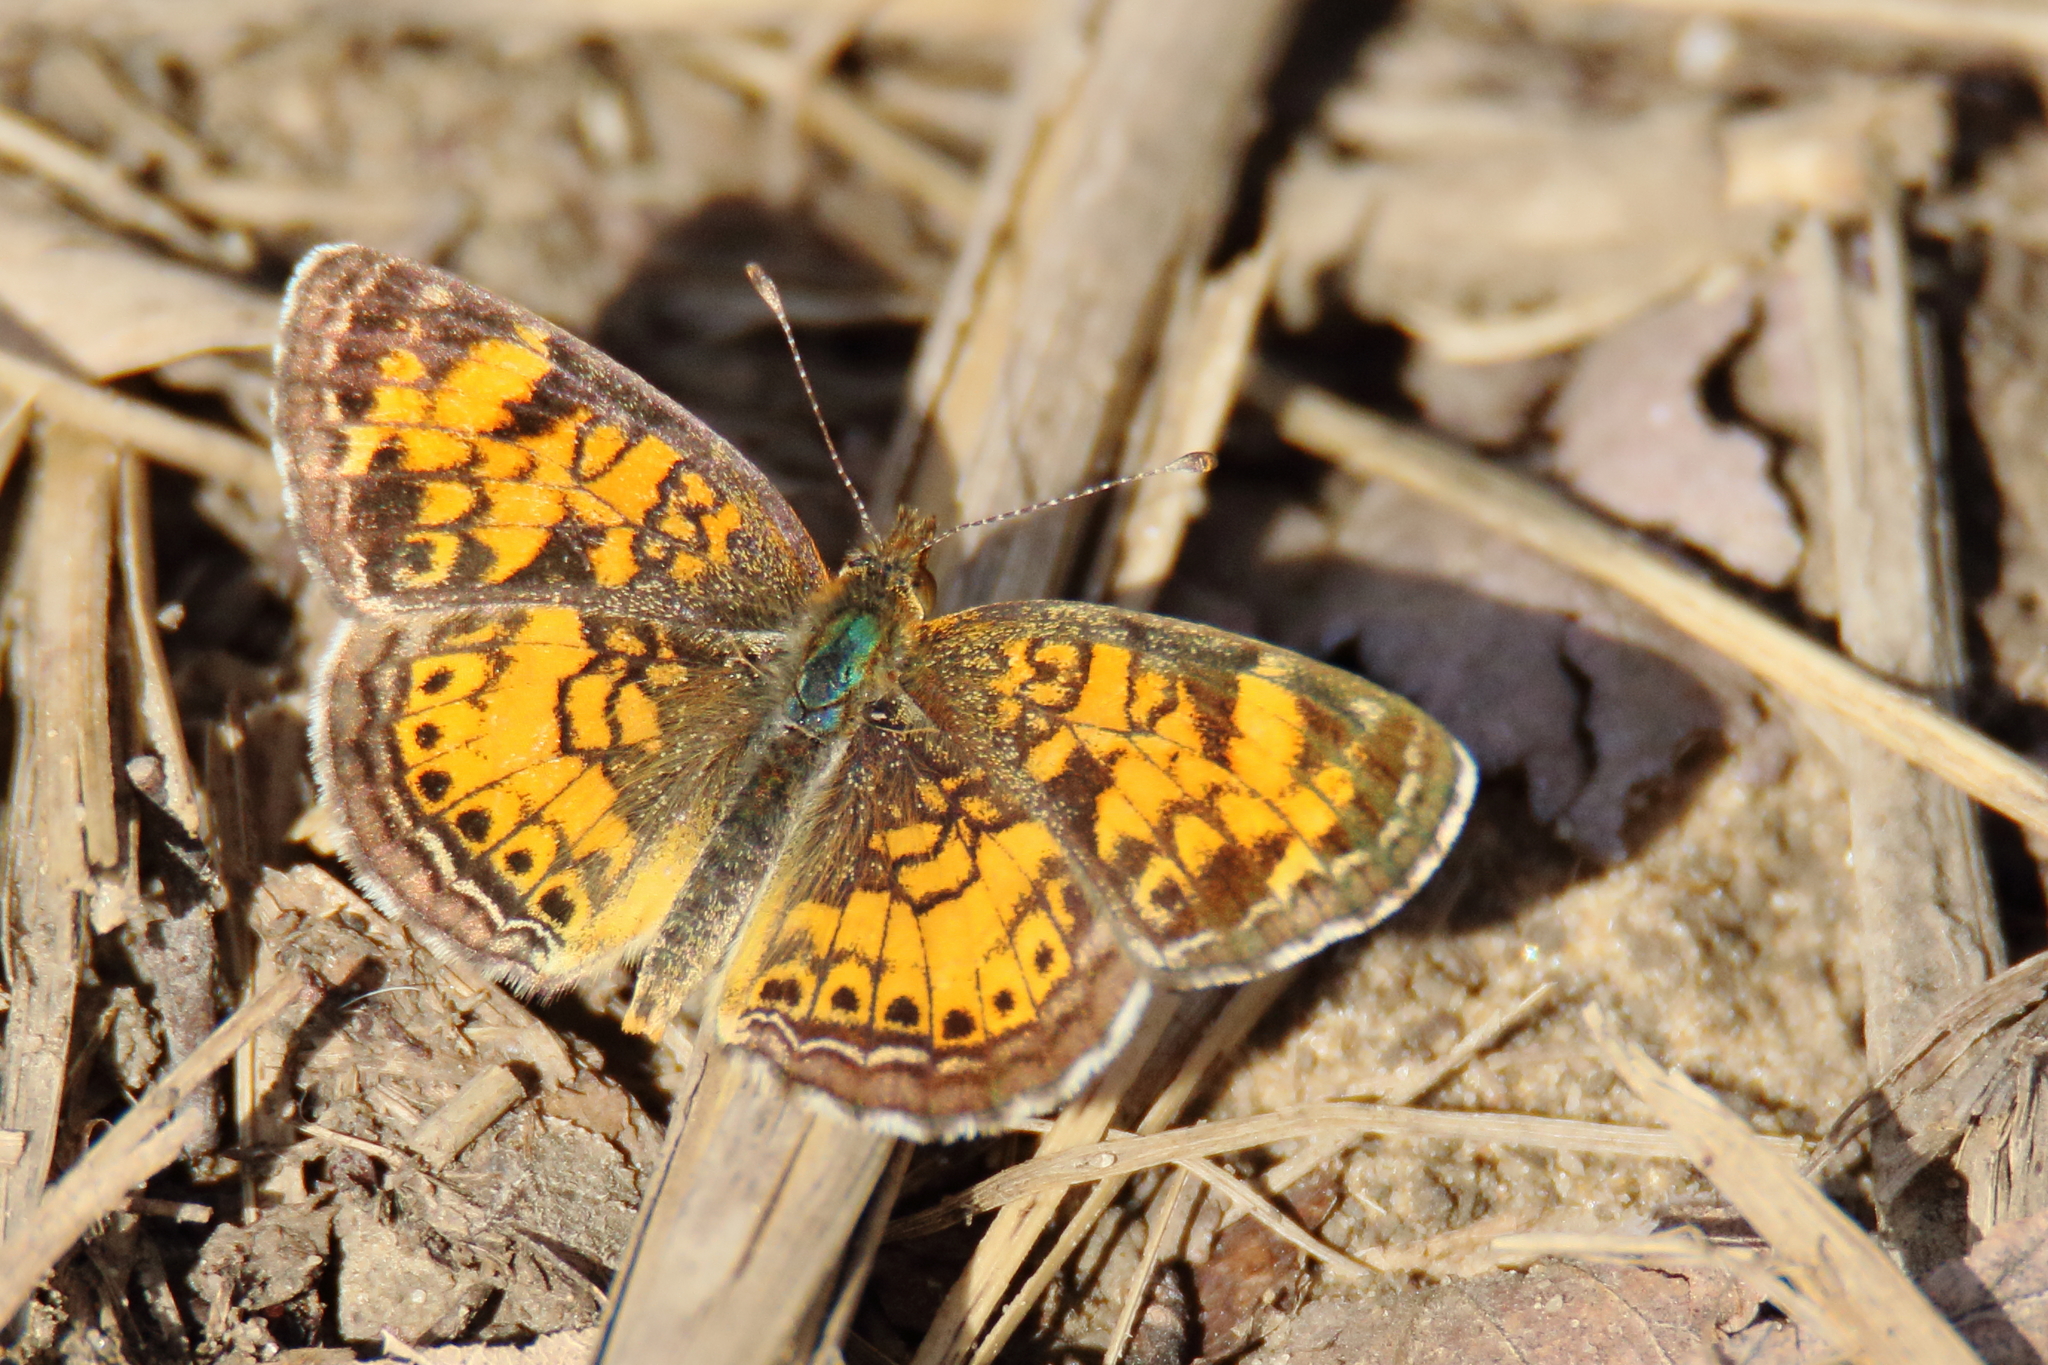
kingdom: Animalia
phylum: Arthropoda
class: Insecta
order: Lepidoptera
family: Nymphalidae
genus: Phyciodes
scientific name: Phyciodes tharos
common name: Pearl crescent
